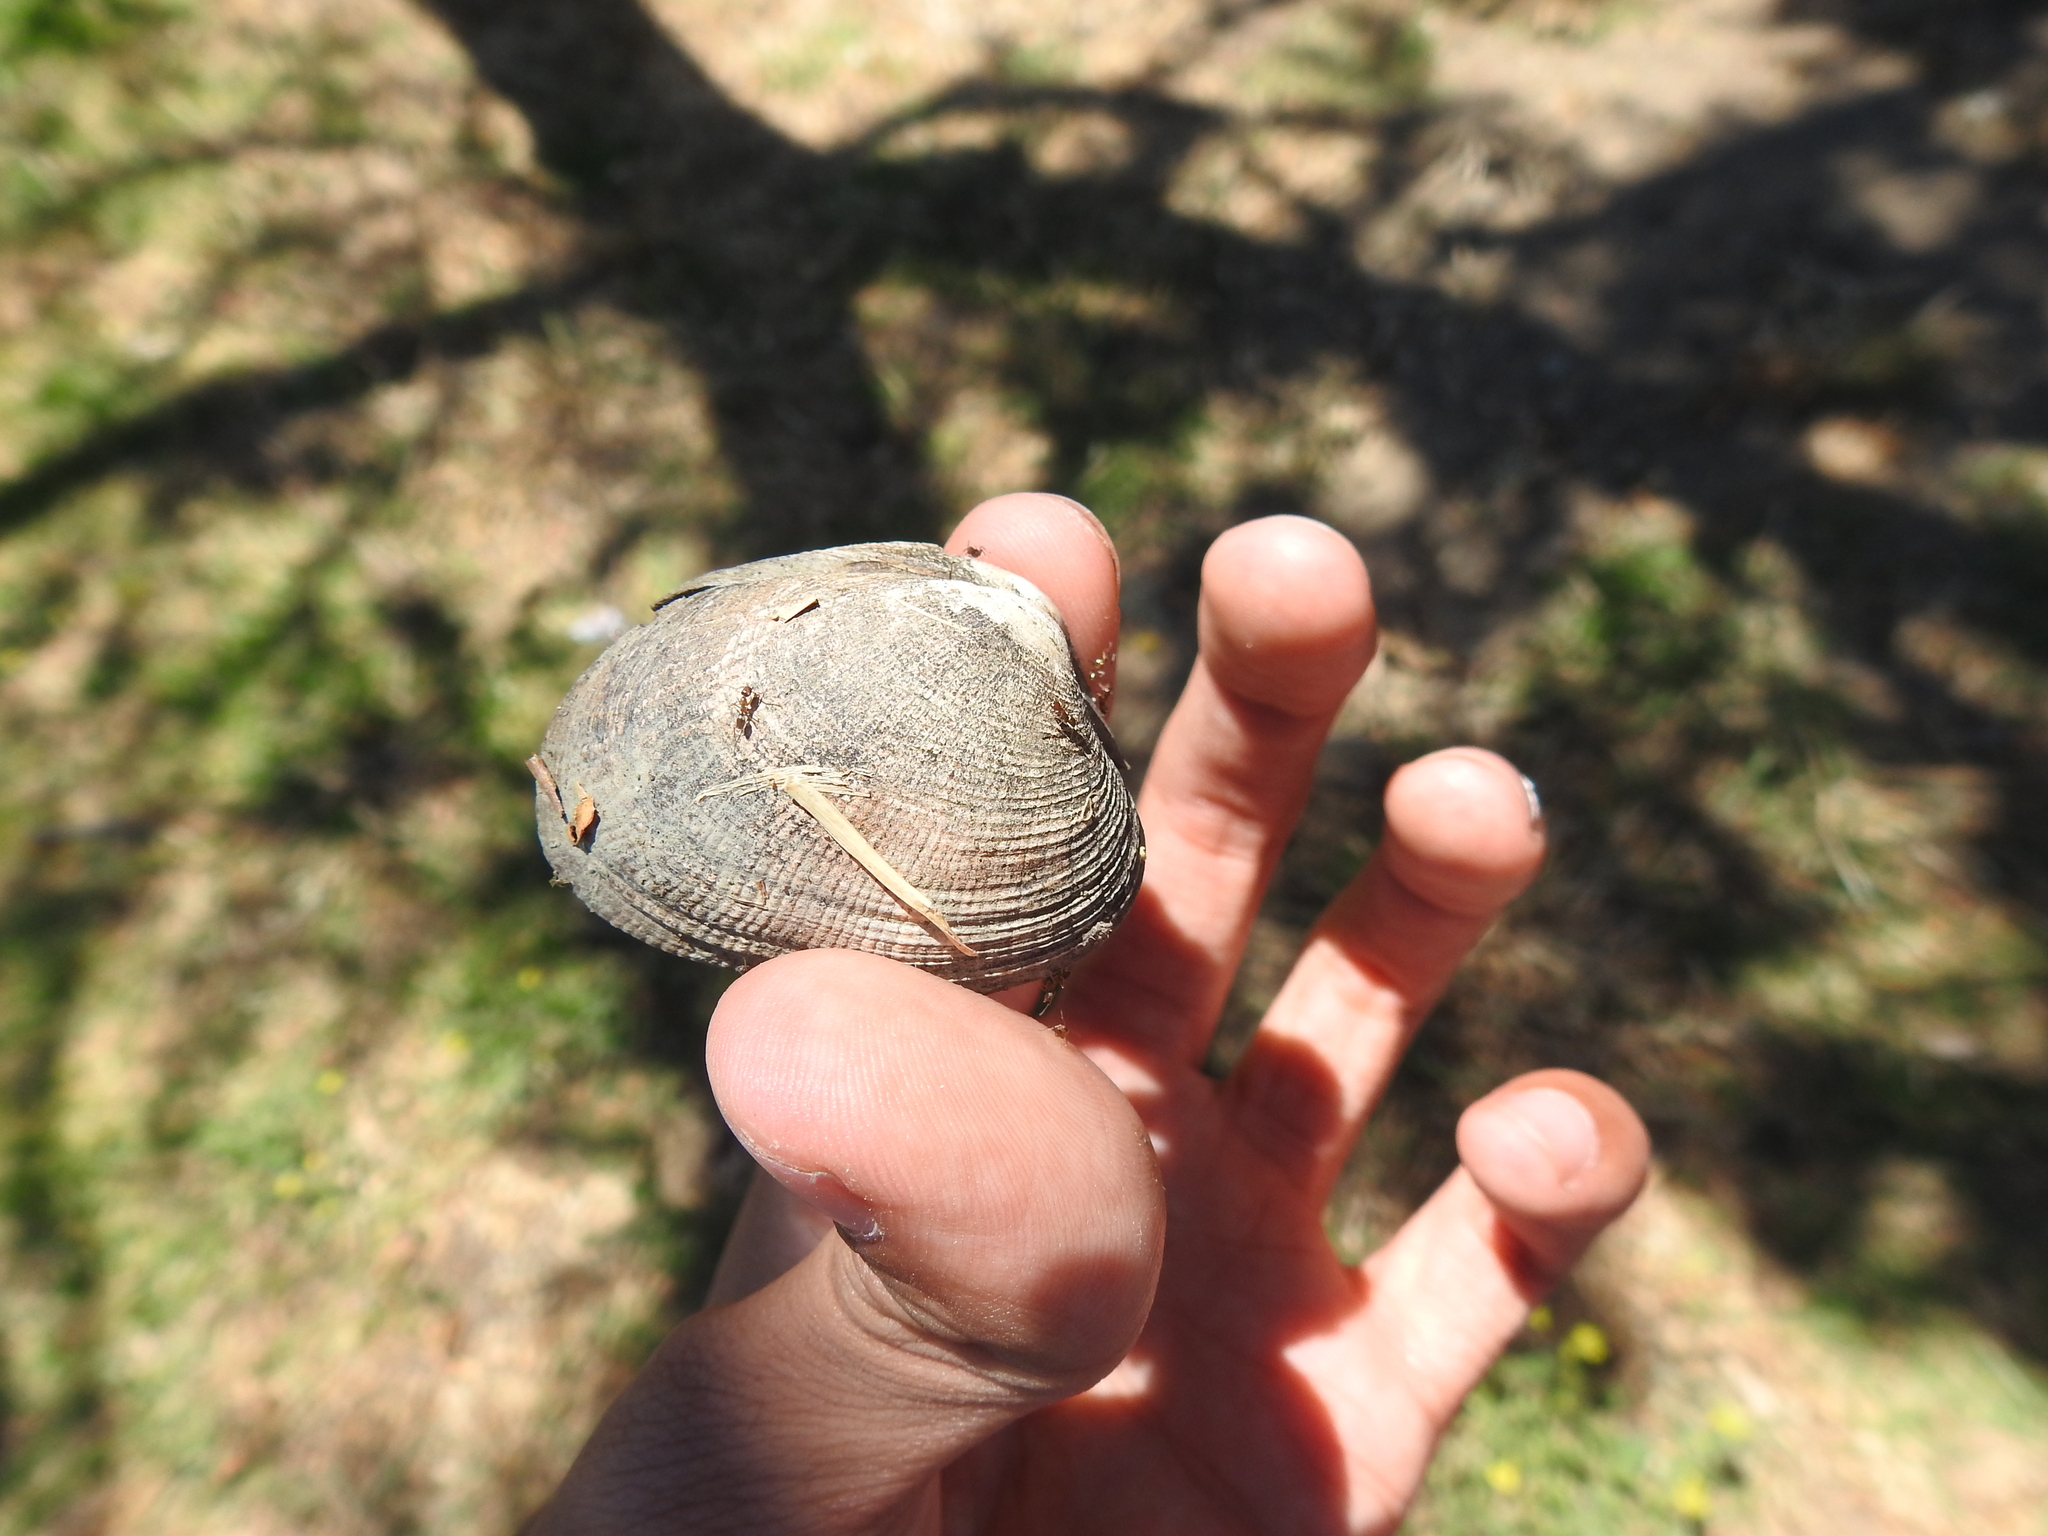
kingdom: Animalia
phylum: Mollusca
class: Bivalvia
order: Venerida
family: Veneridae
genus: Ruditapes
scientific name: Ruditapes philippinarum
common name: Manila clam
